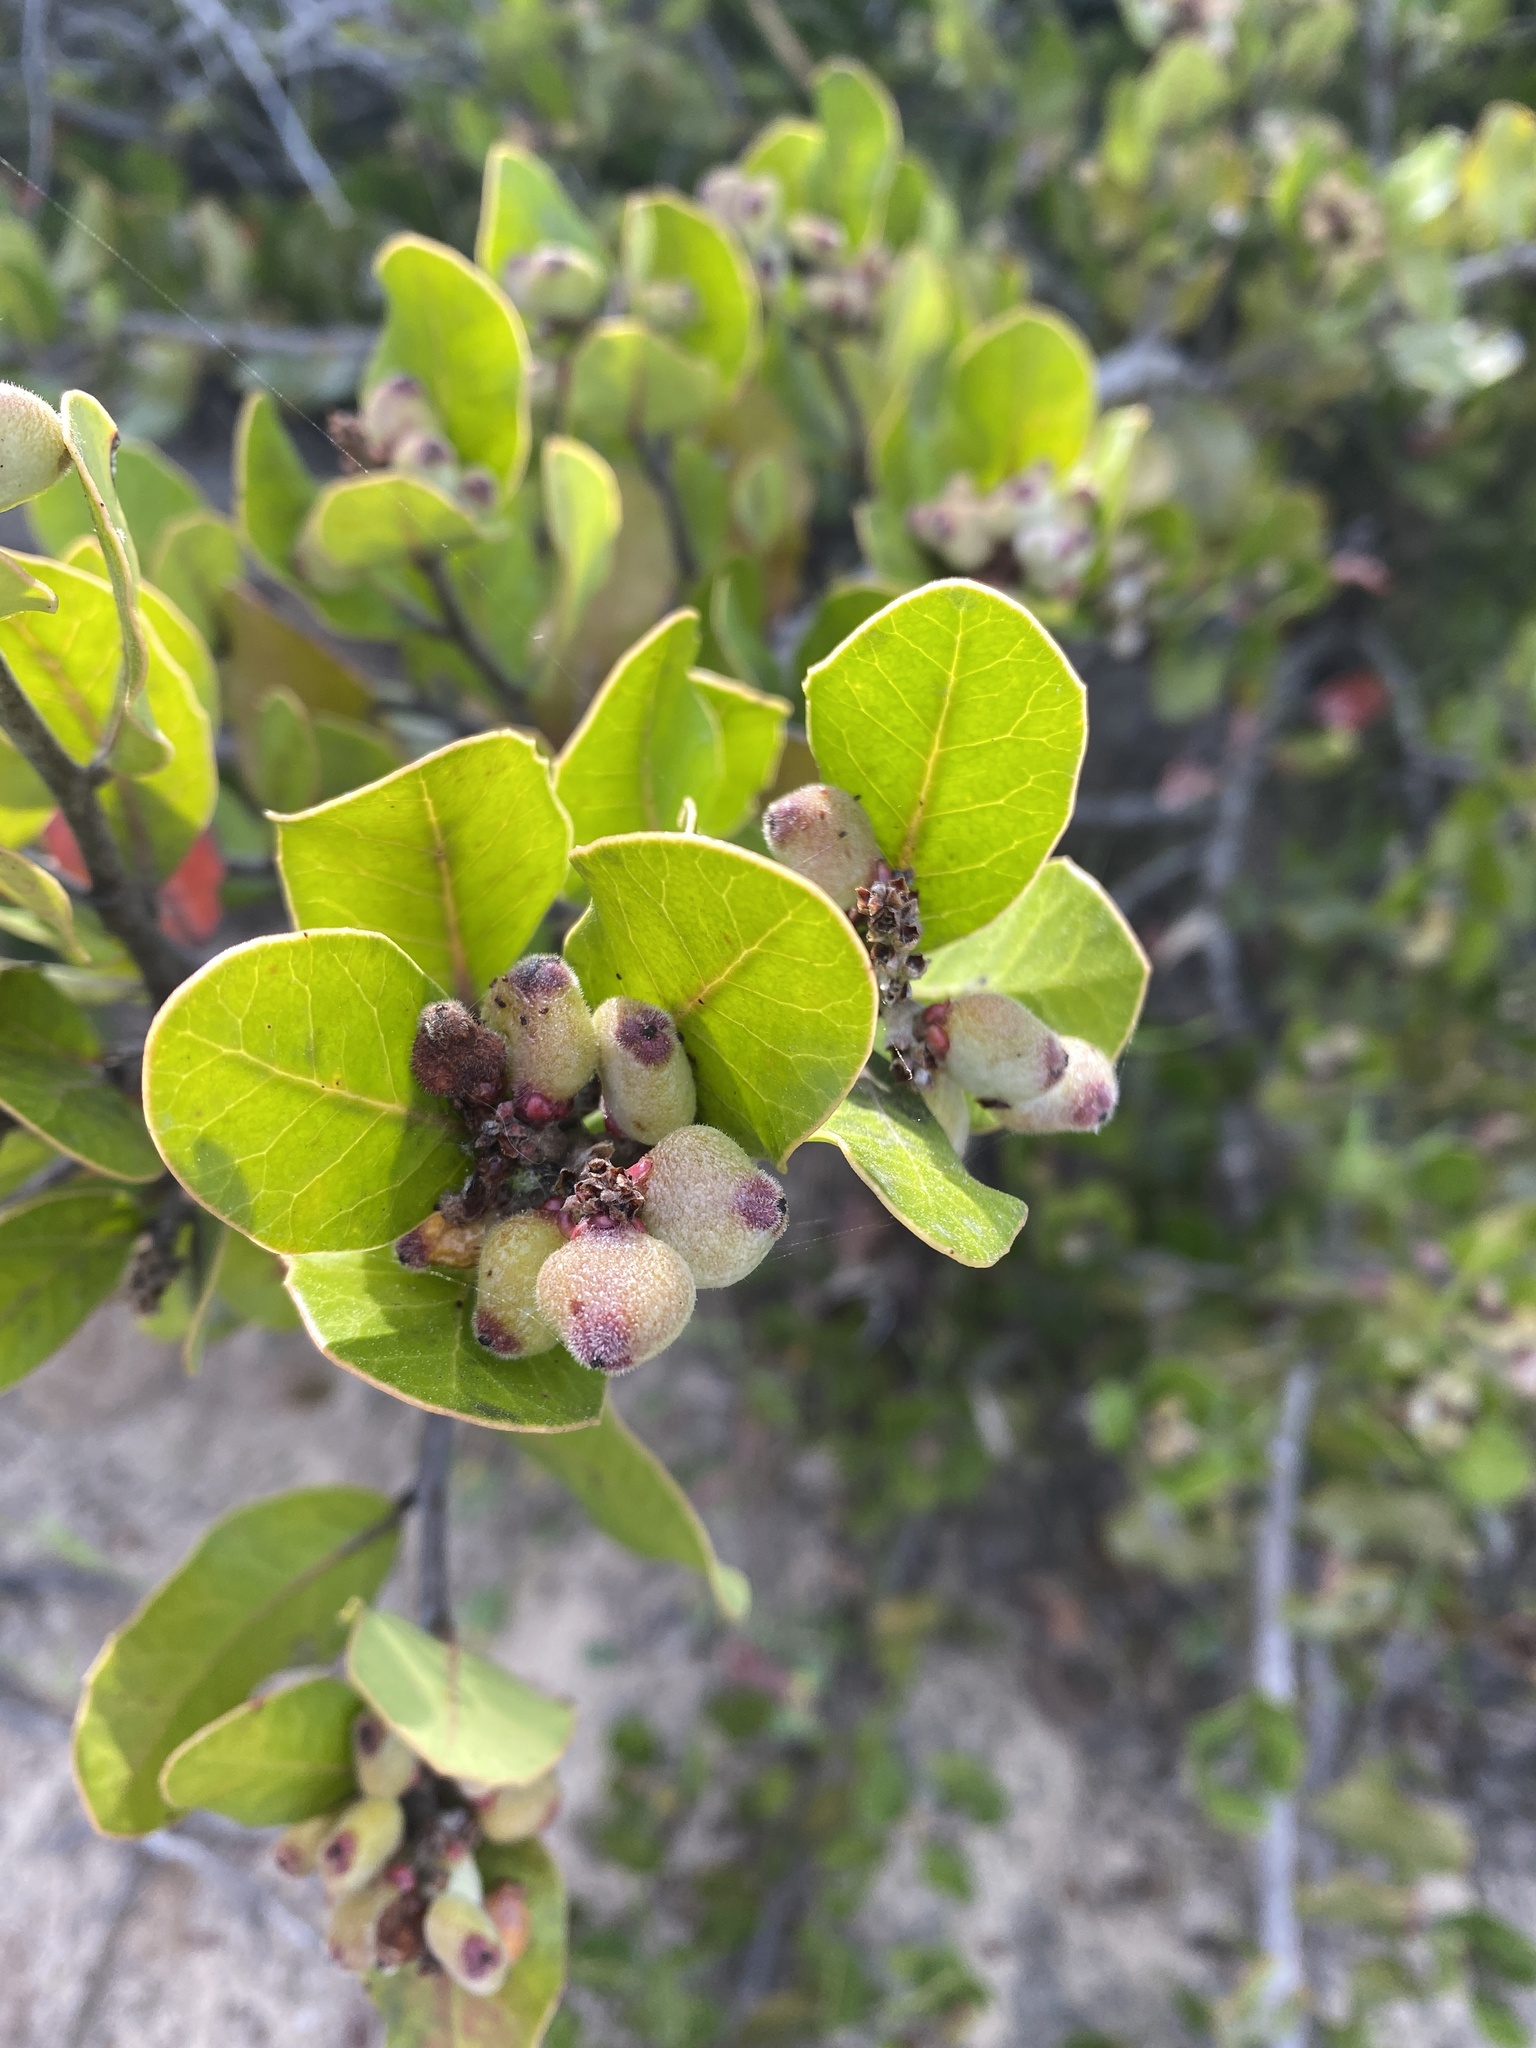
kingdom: Plantae
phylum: Tracheophyta
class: Magnoliopsida
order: Sapindales
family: Anacardiaceae
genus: Rhus
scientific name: Rhus integrifolia
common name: Lemonade sumac
